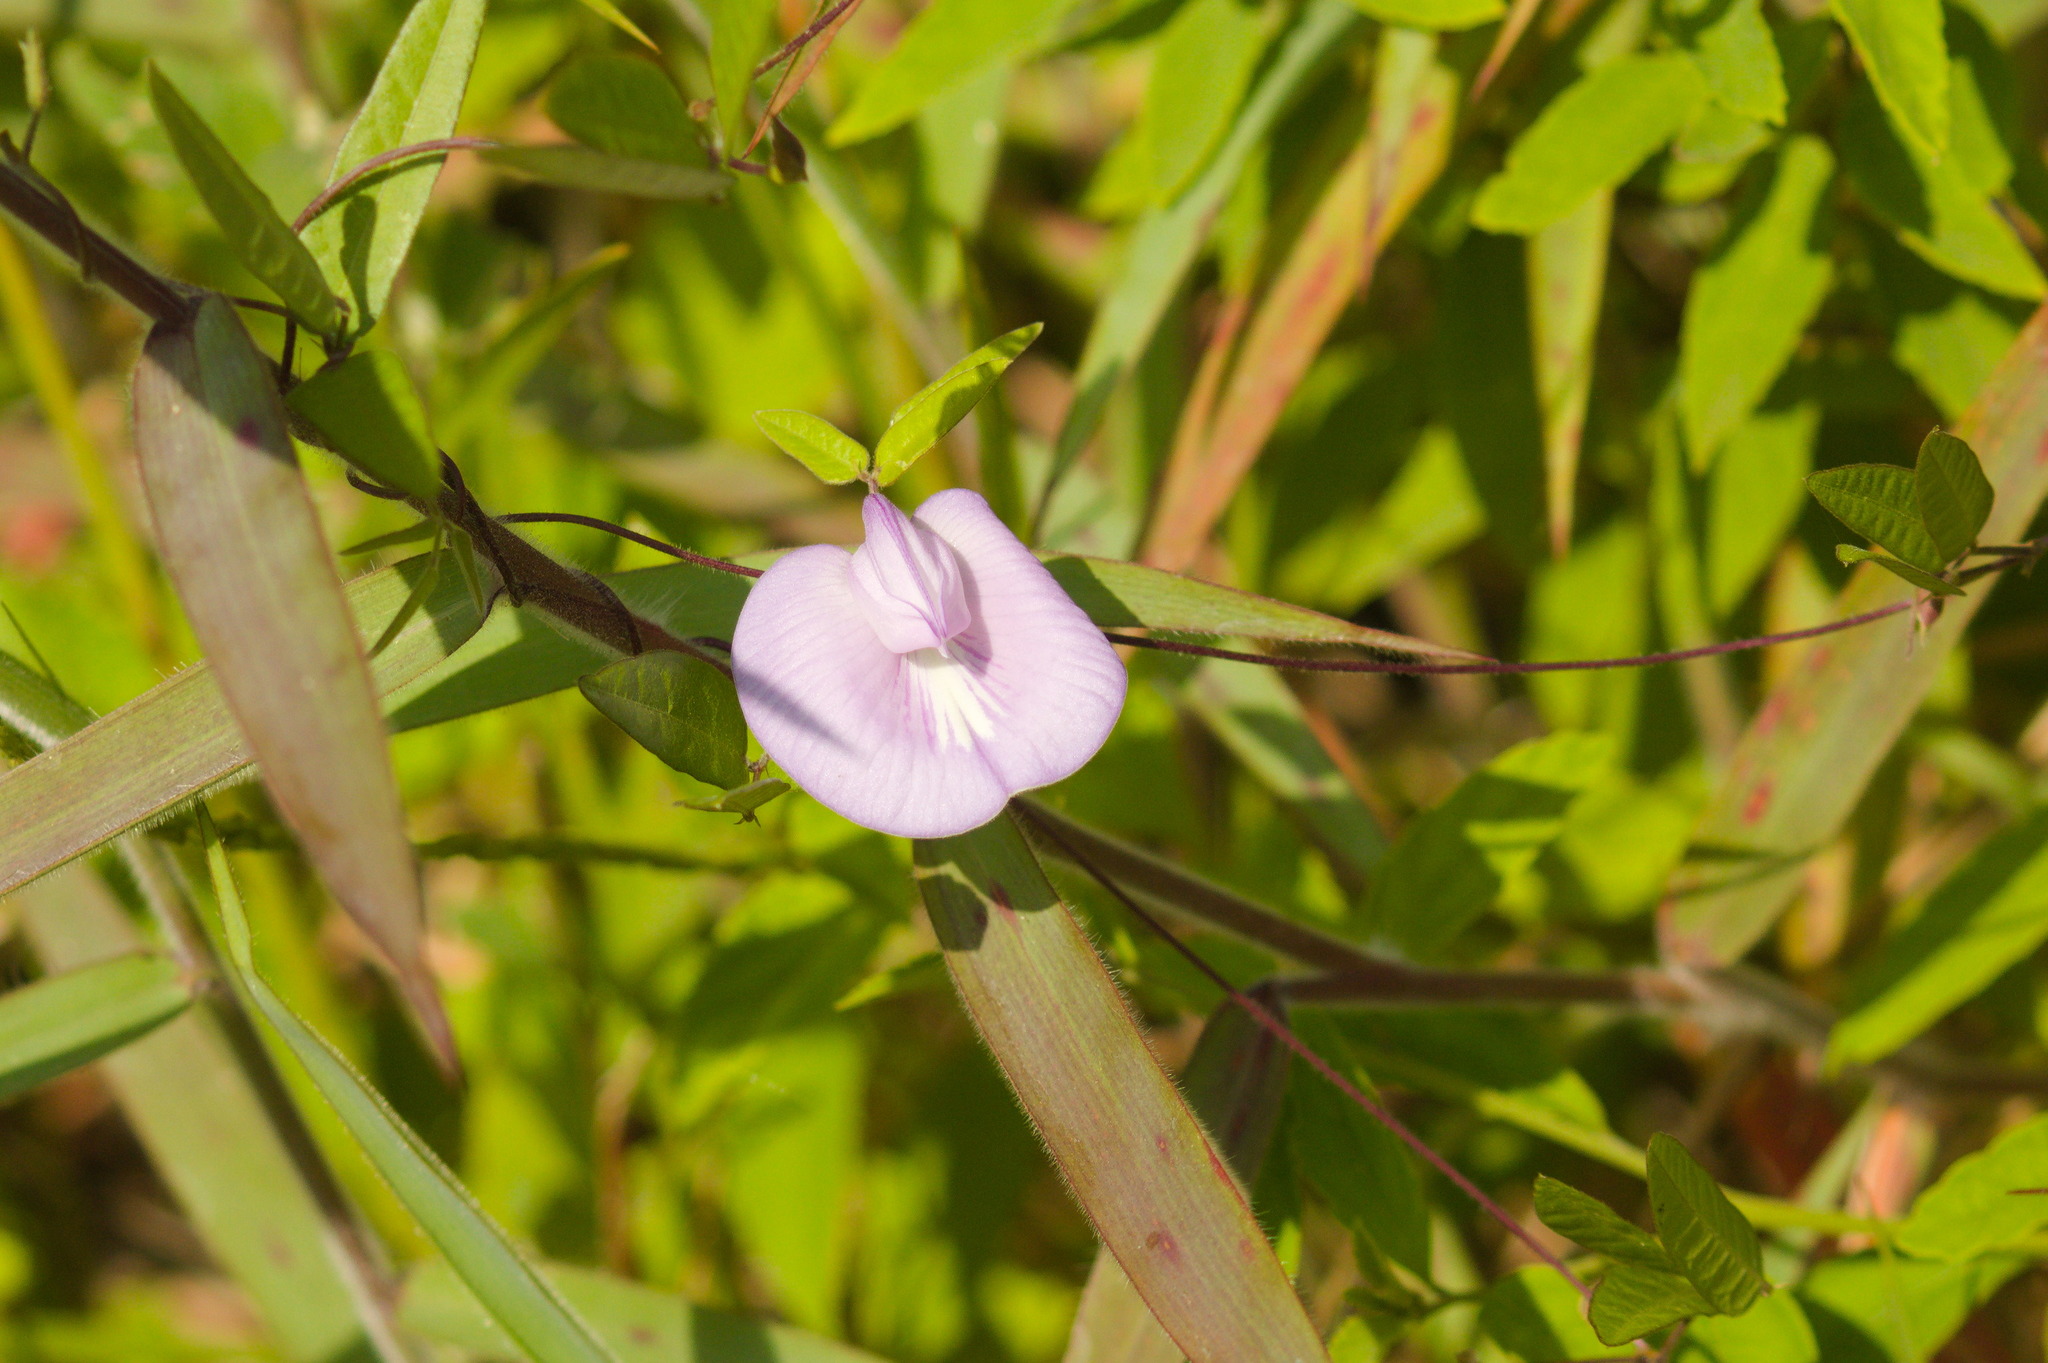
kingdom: Plantae
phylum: Tracheophyta
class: Magnoliopsida
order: Fabales
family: Fabaceae
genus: Centrosema
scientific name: Centrosema virginianum
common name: Butterfly-pea
